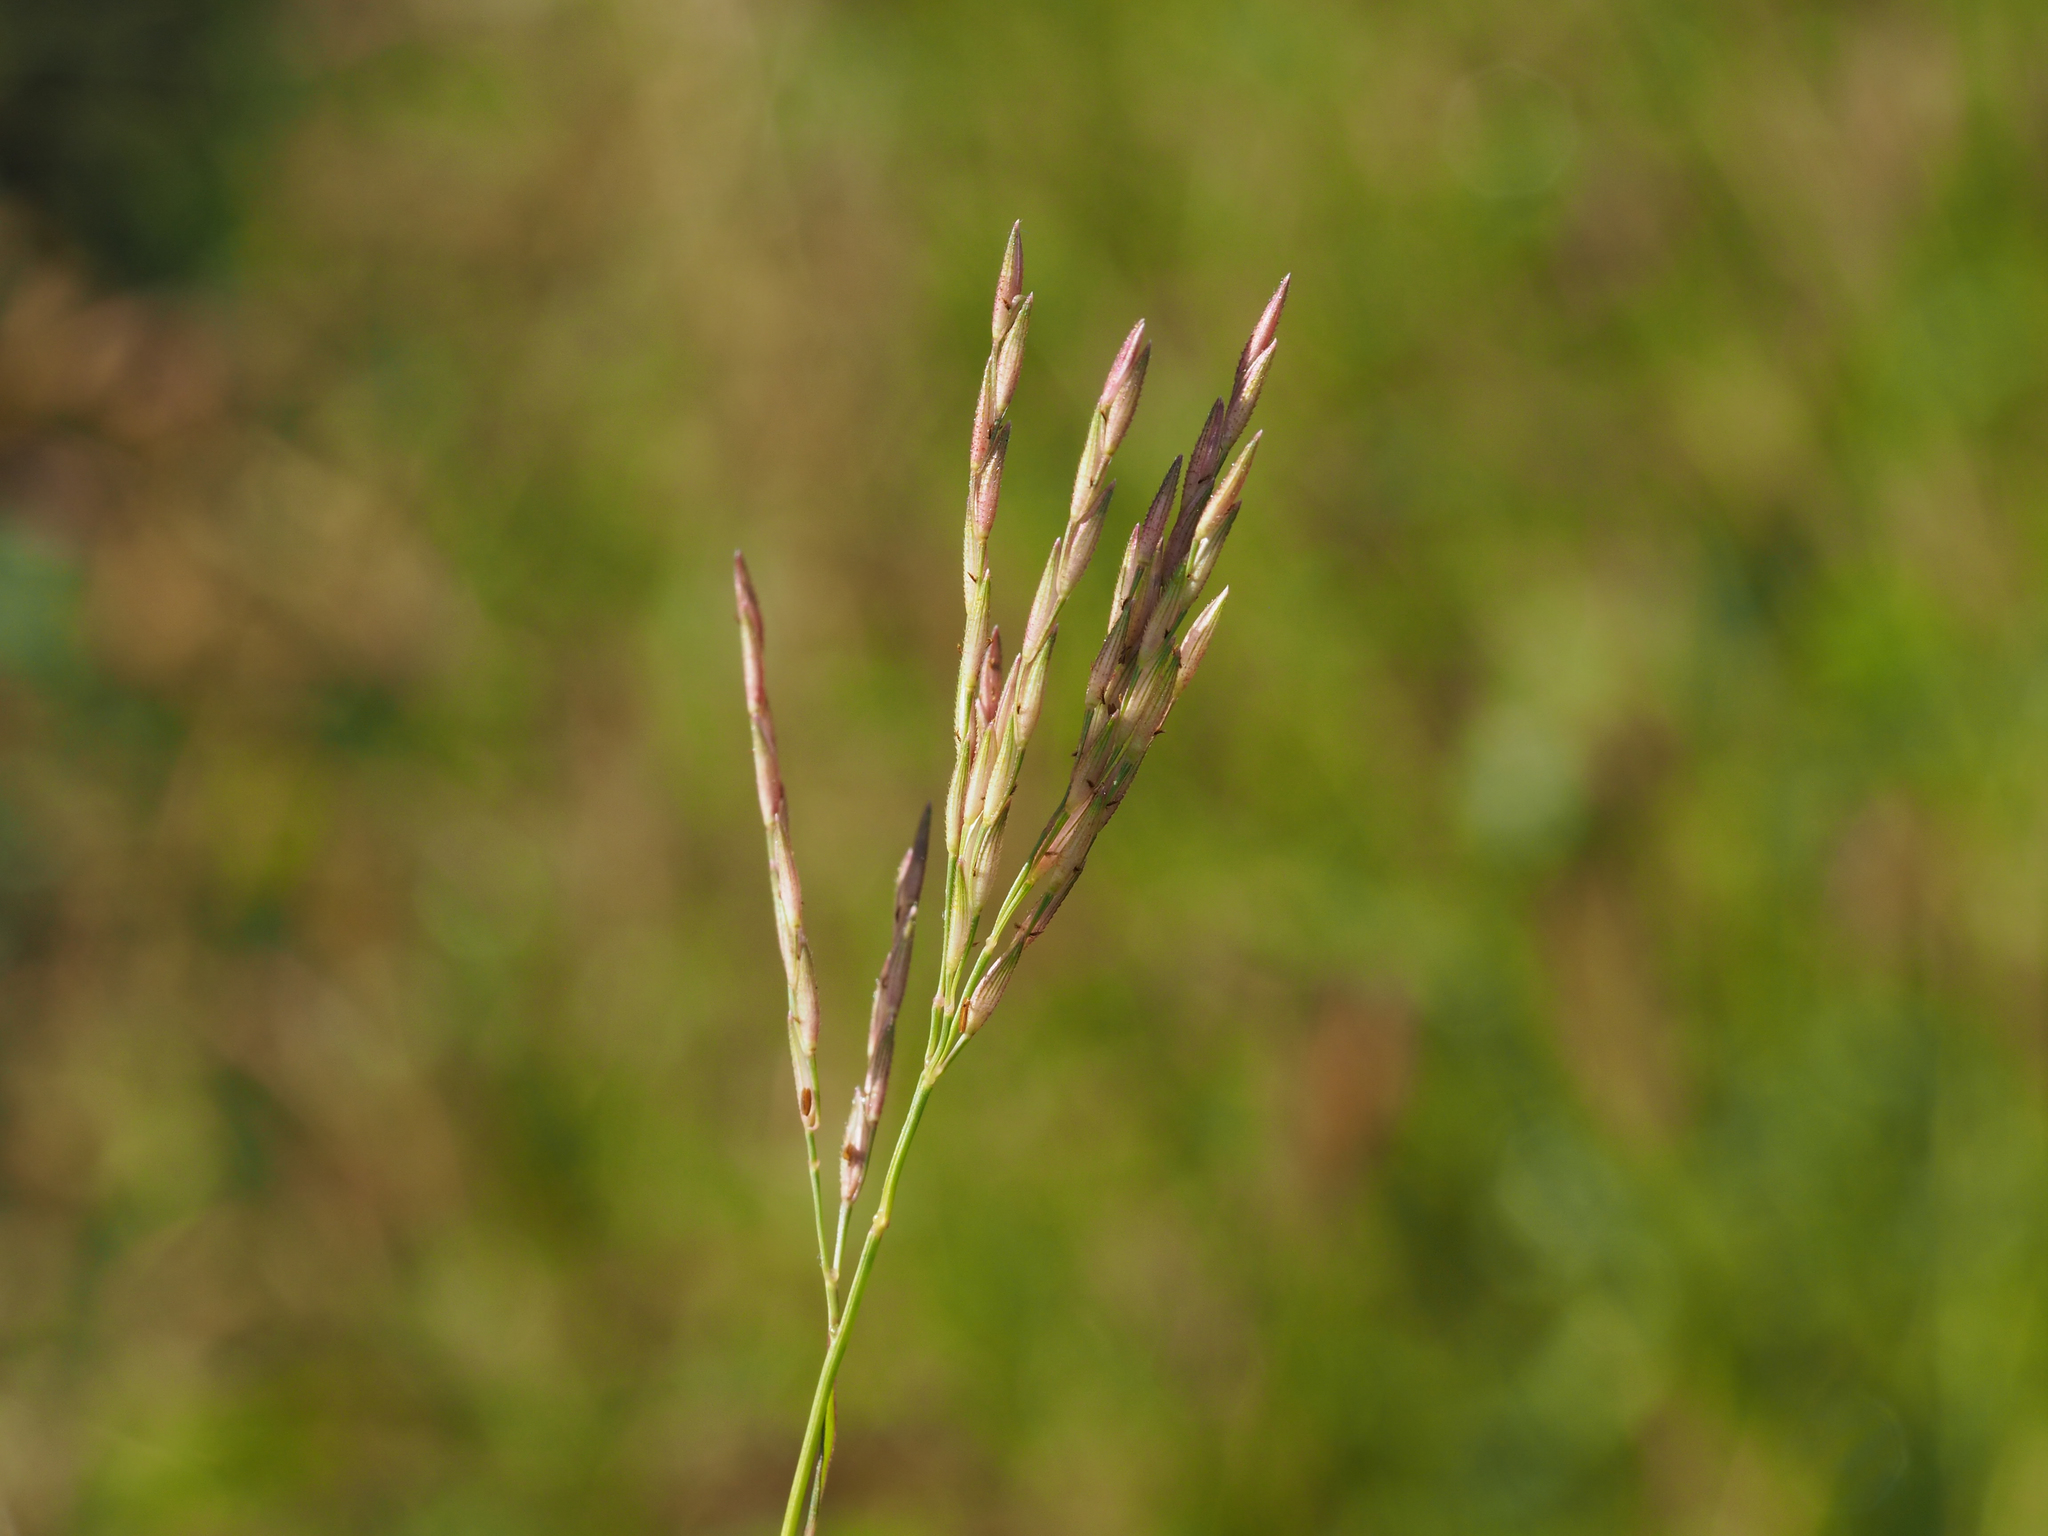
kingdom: Plantae
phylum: Tracheophyta
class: Liliopsida
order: Poales
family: Poaceae
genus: Arthraxon
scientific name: Arthraxon hispidus
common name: Small carpgrass
